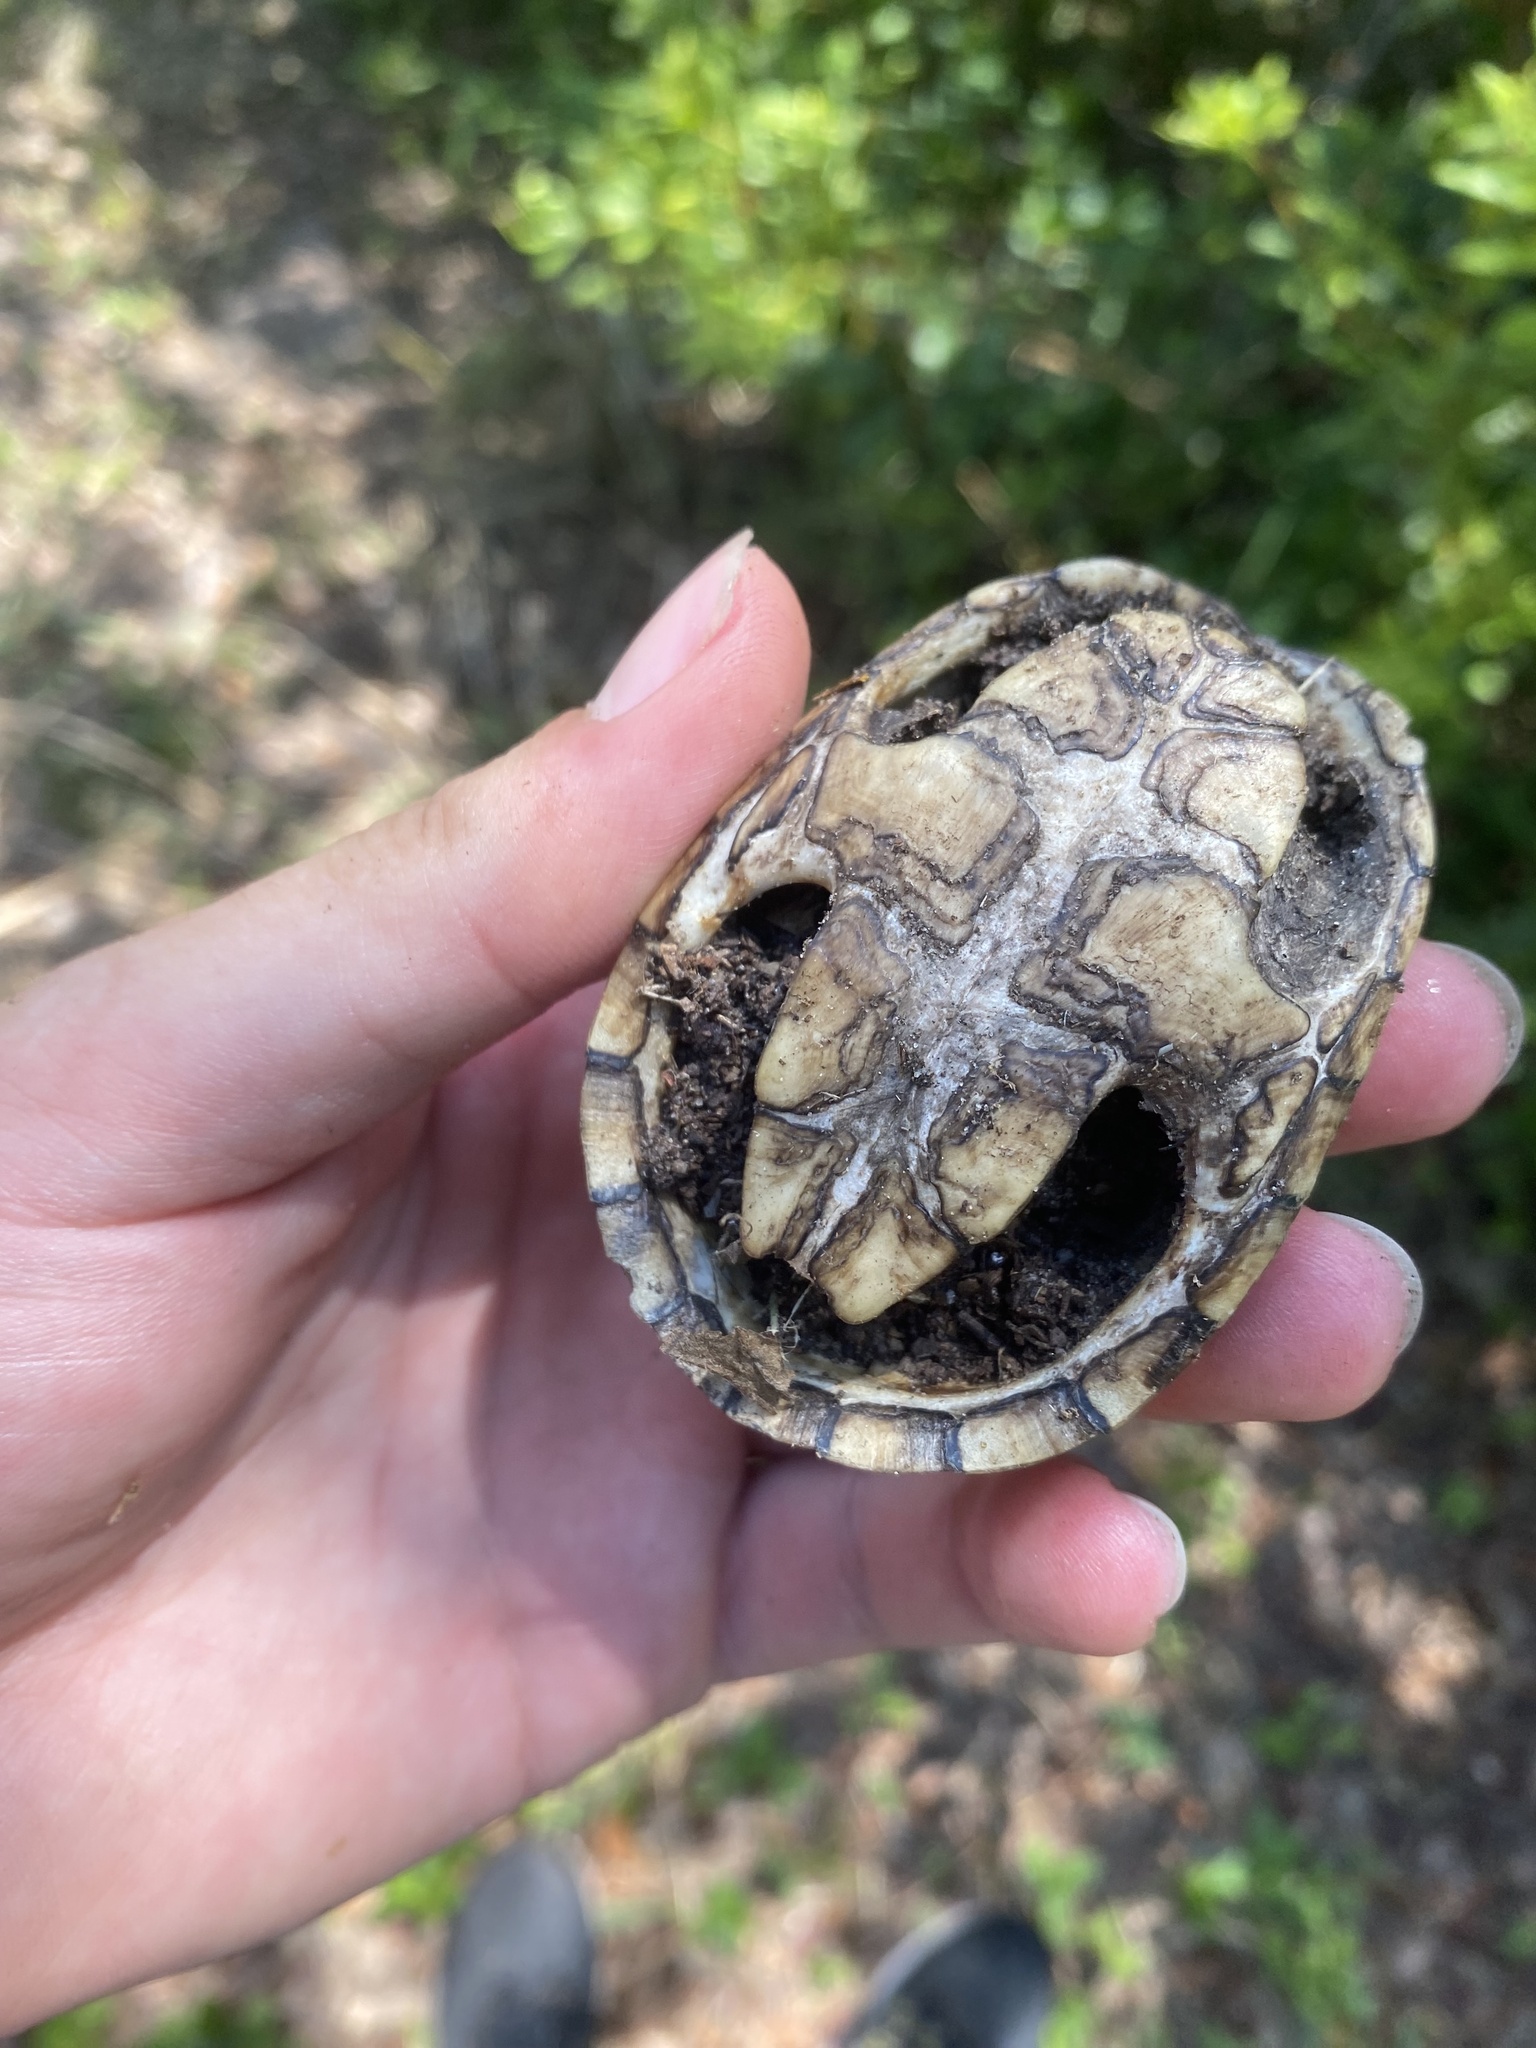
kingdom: Animalia
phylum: Chordata
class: Testudines
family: Kinosternidae
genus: Sternotherus
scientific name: Sternotherus odoratus
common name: Common musk turtle
